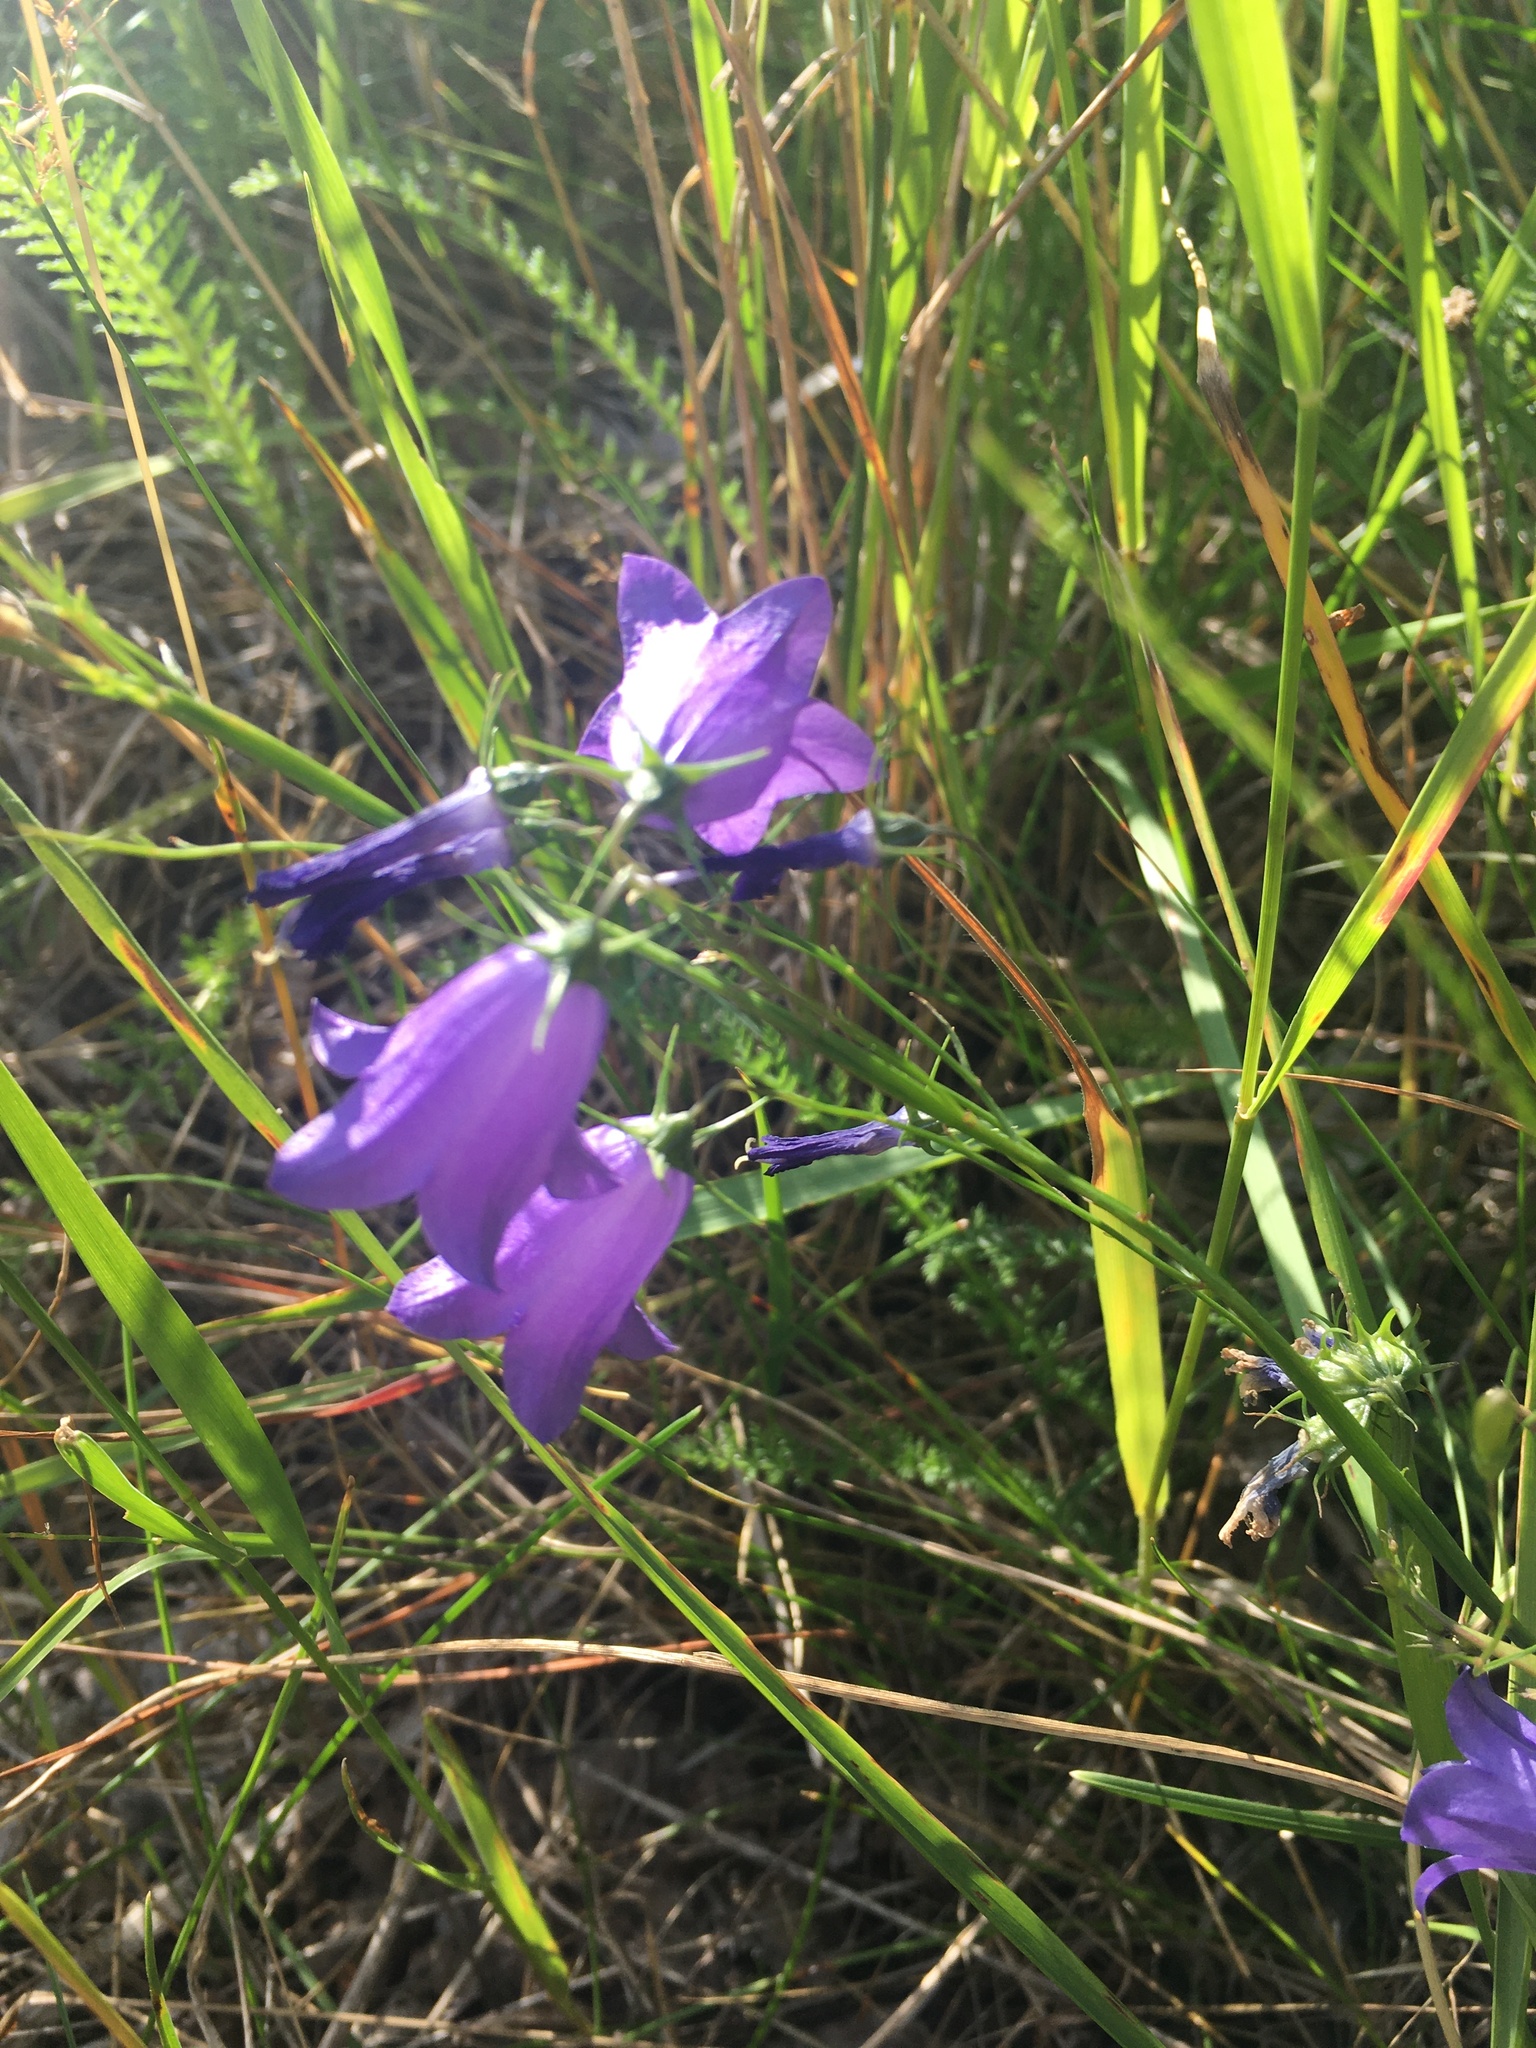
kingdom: Plantae
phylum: Tracheophyta
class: Magnoliopsida
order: Asterales
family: Campanulaceae
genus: Campanula
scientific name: Campanula rotundifolia
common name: Harebell
